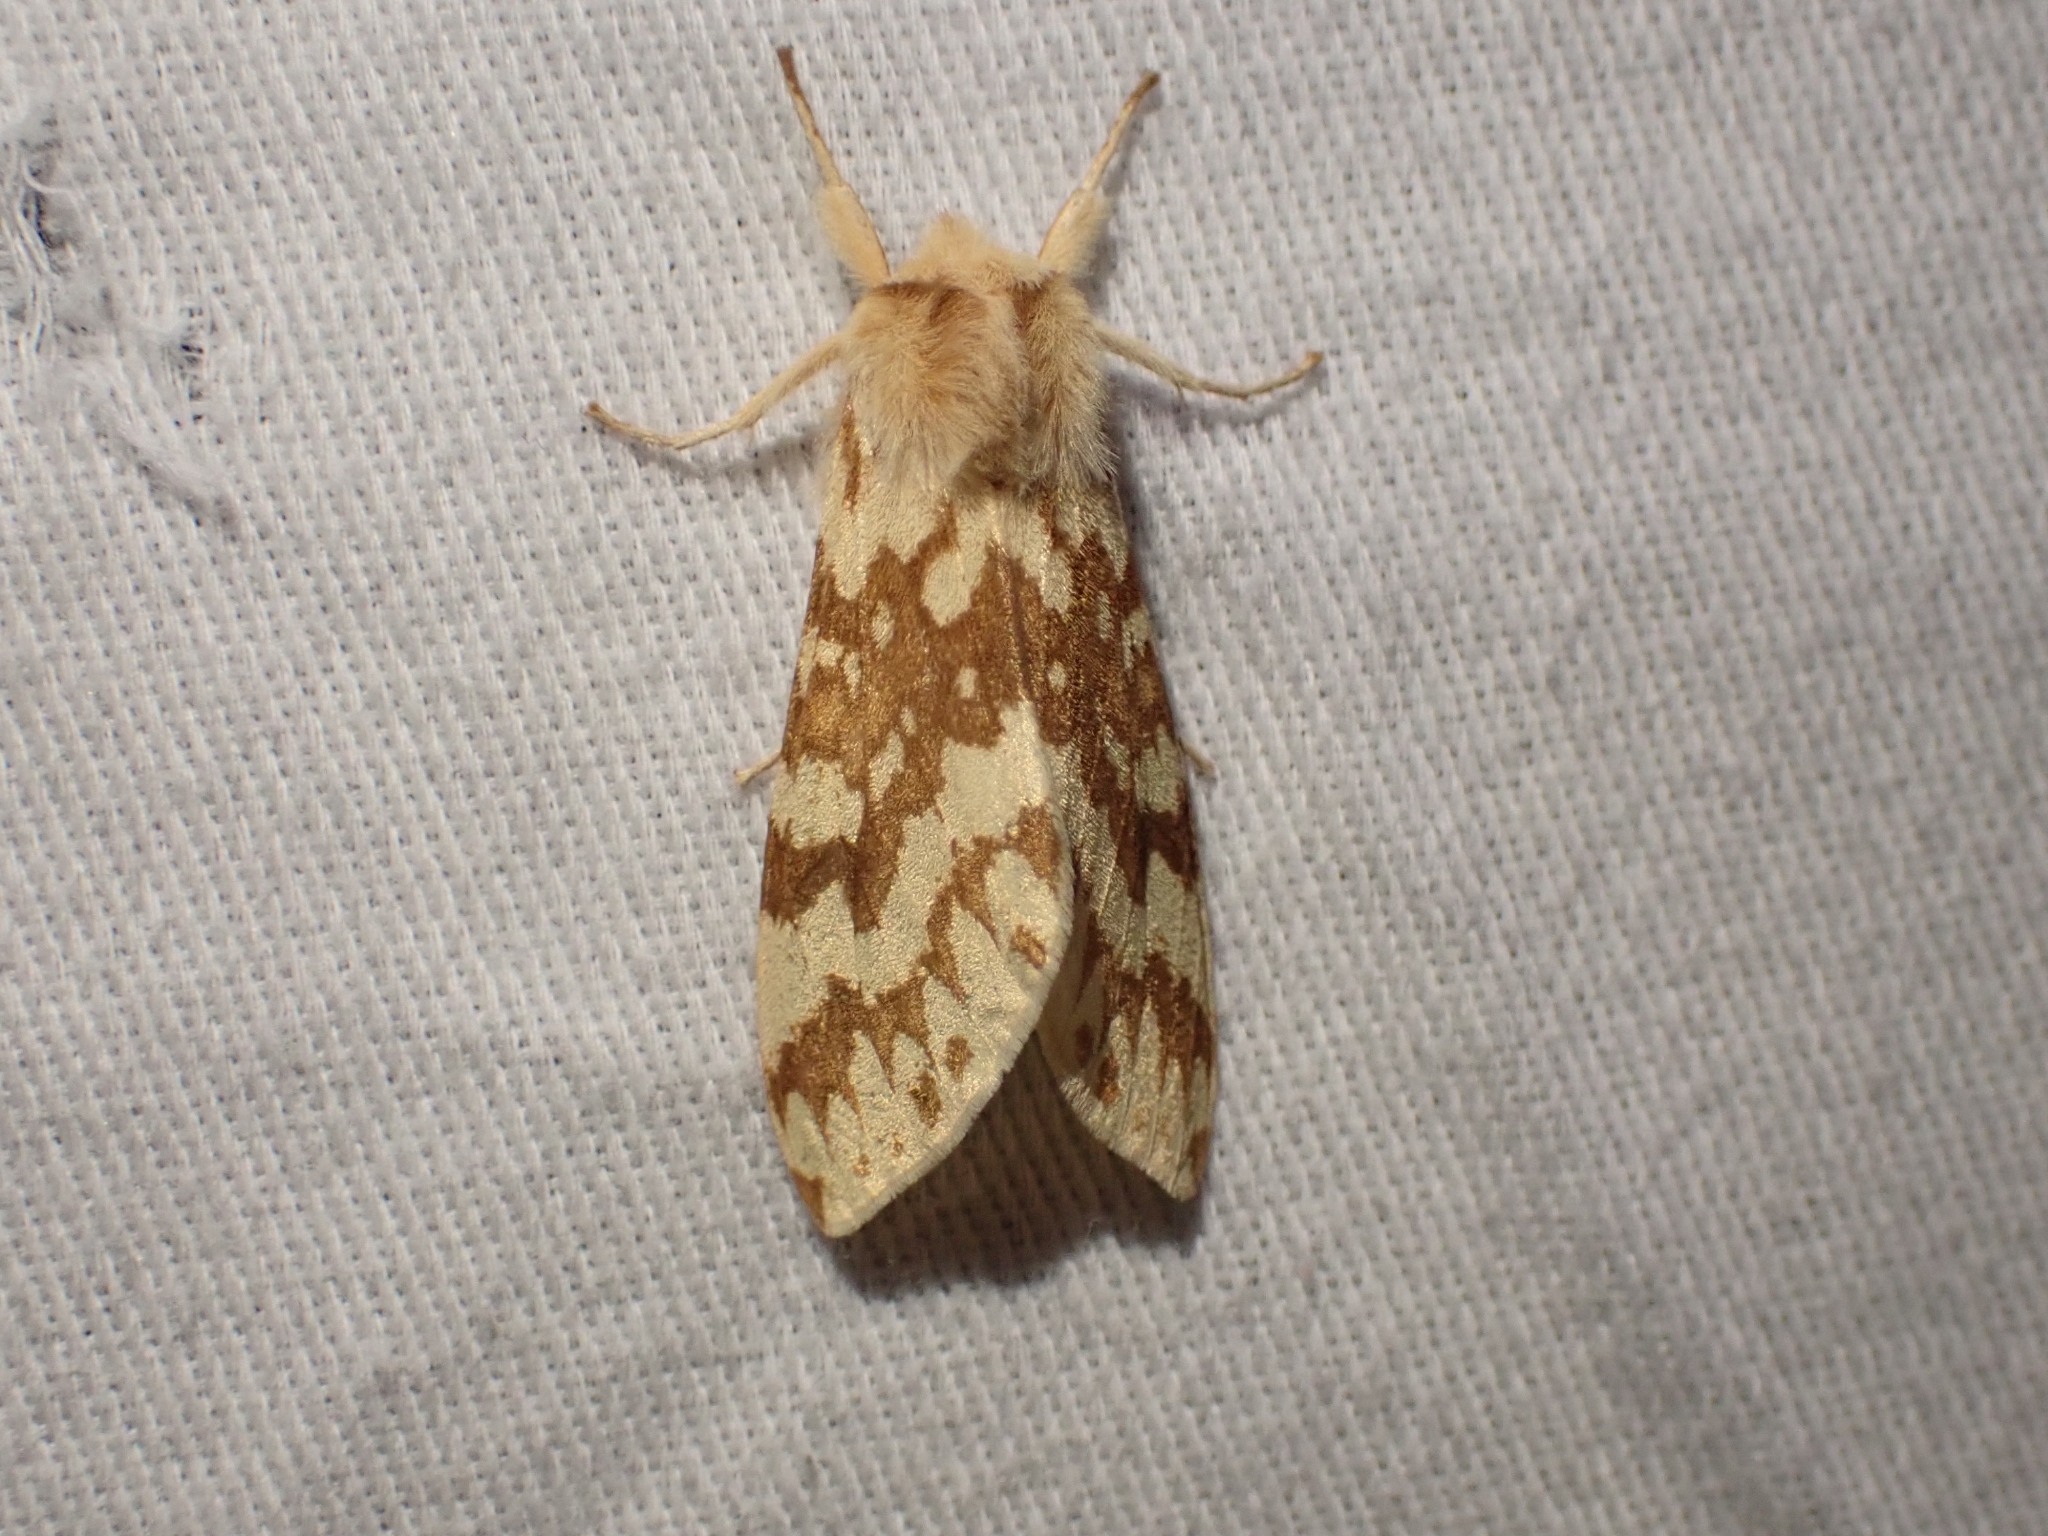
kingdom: Animalia
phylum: Arthropoda
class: Insecta
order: Lepidoptera
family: Erebidae
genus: Lophocampa
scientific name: Lophocampa maculata
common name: Spotted tussock moth
